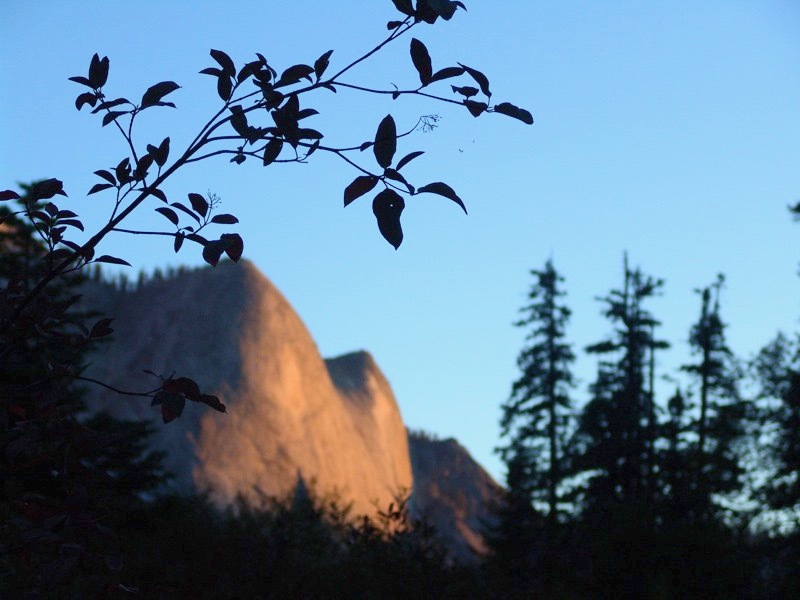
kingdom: Plantae
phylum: Tracheophyta
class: Magnoliopsida
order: Cornales
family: Cornaceae
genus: Cornus
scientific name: Cornus sericea
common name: Red-osier dogwood
